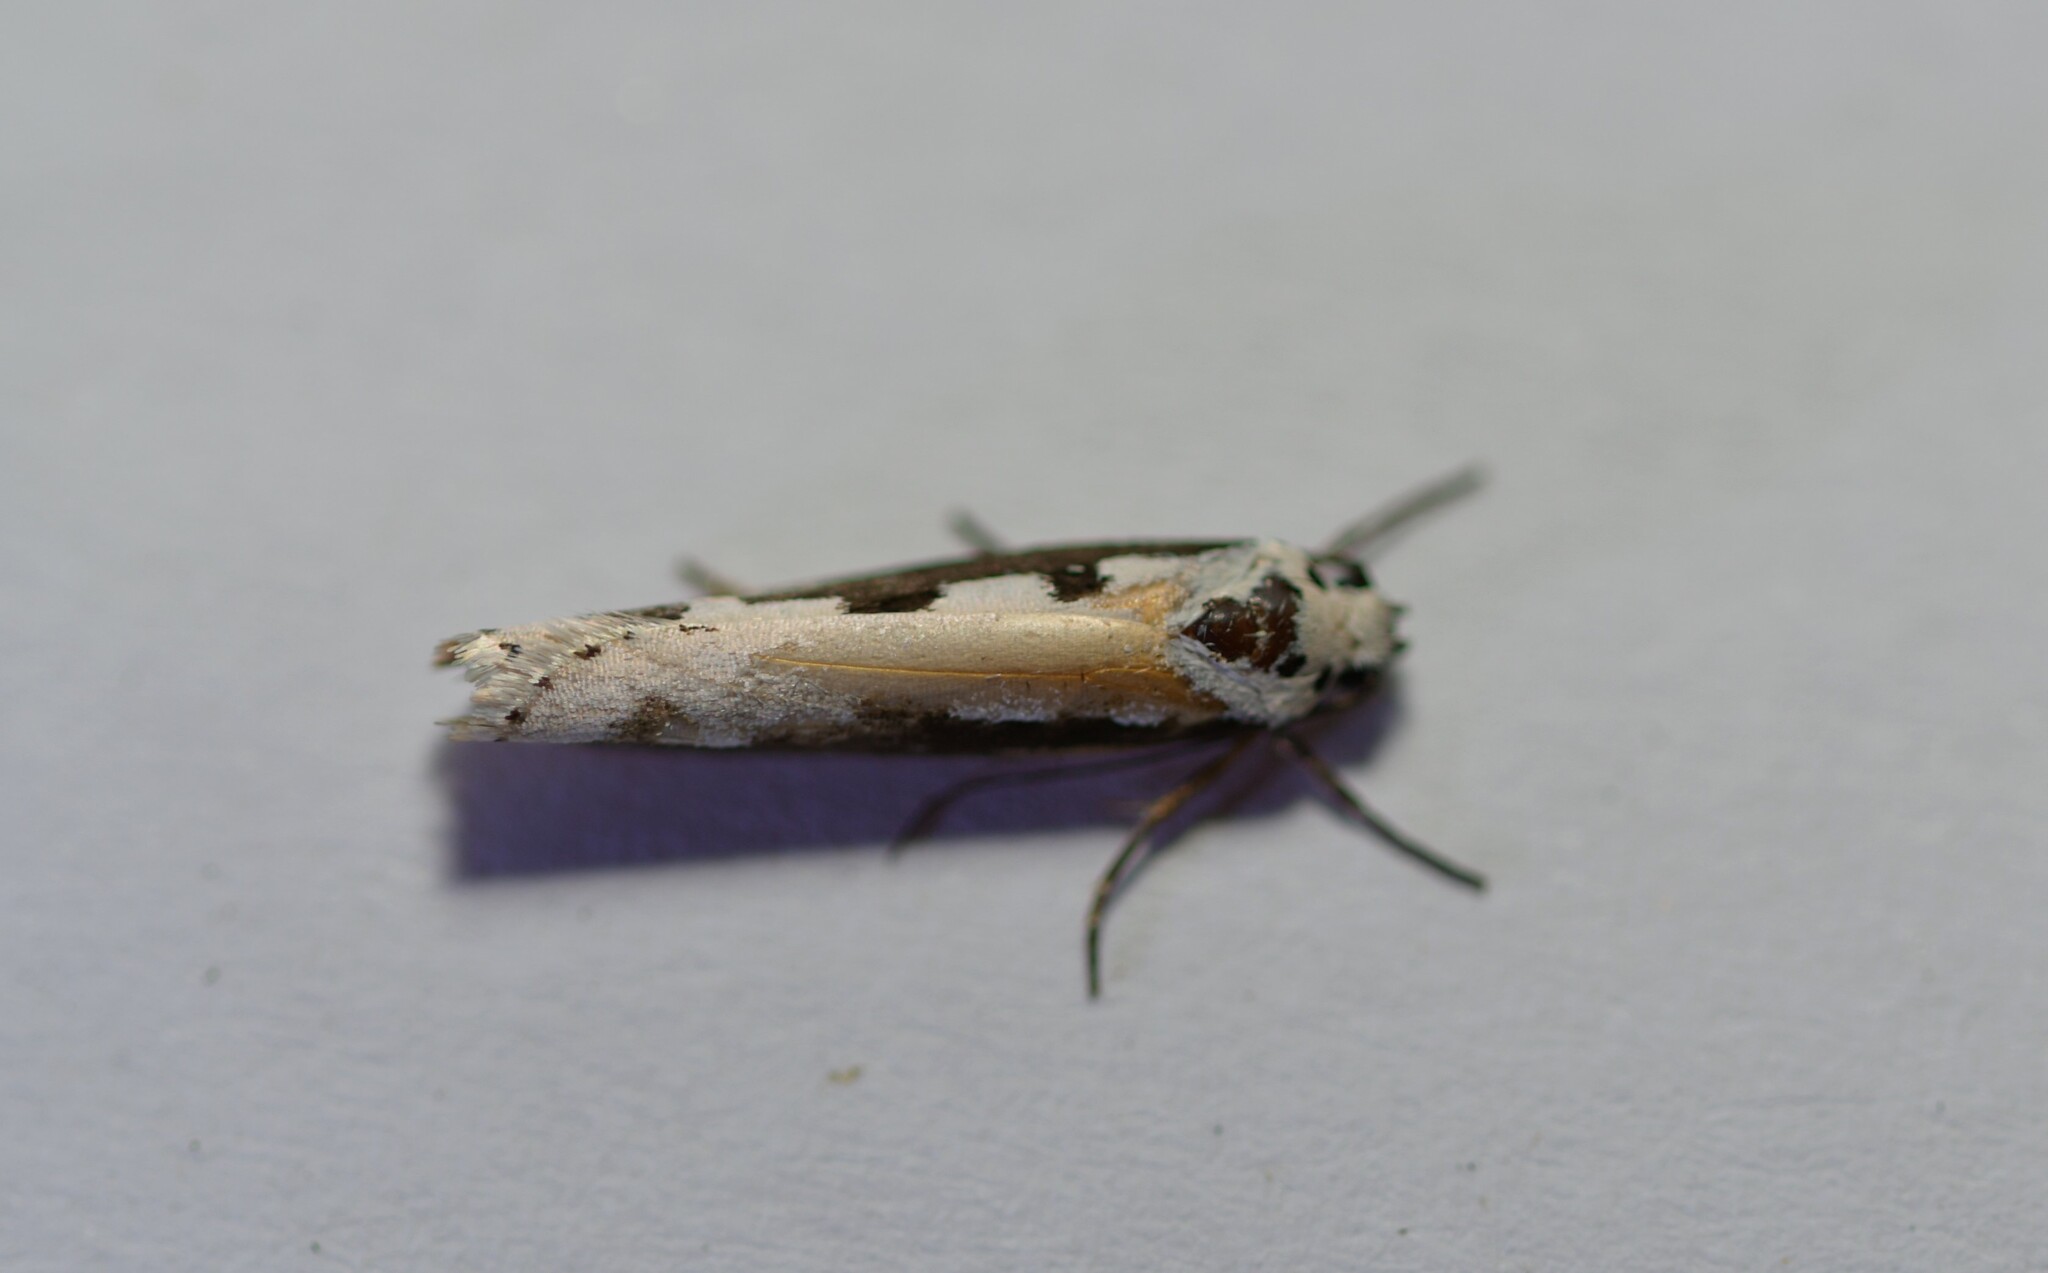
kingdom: Animalia
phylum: Arthropoda
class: Insecta
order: Lepidoptera
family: Ethmiidae
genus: Ethmia
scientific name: Ethmia bipunctella
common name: Bordered ermel
